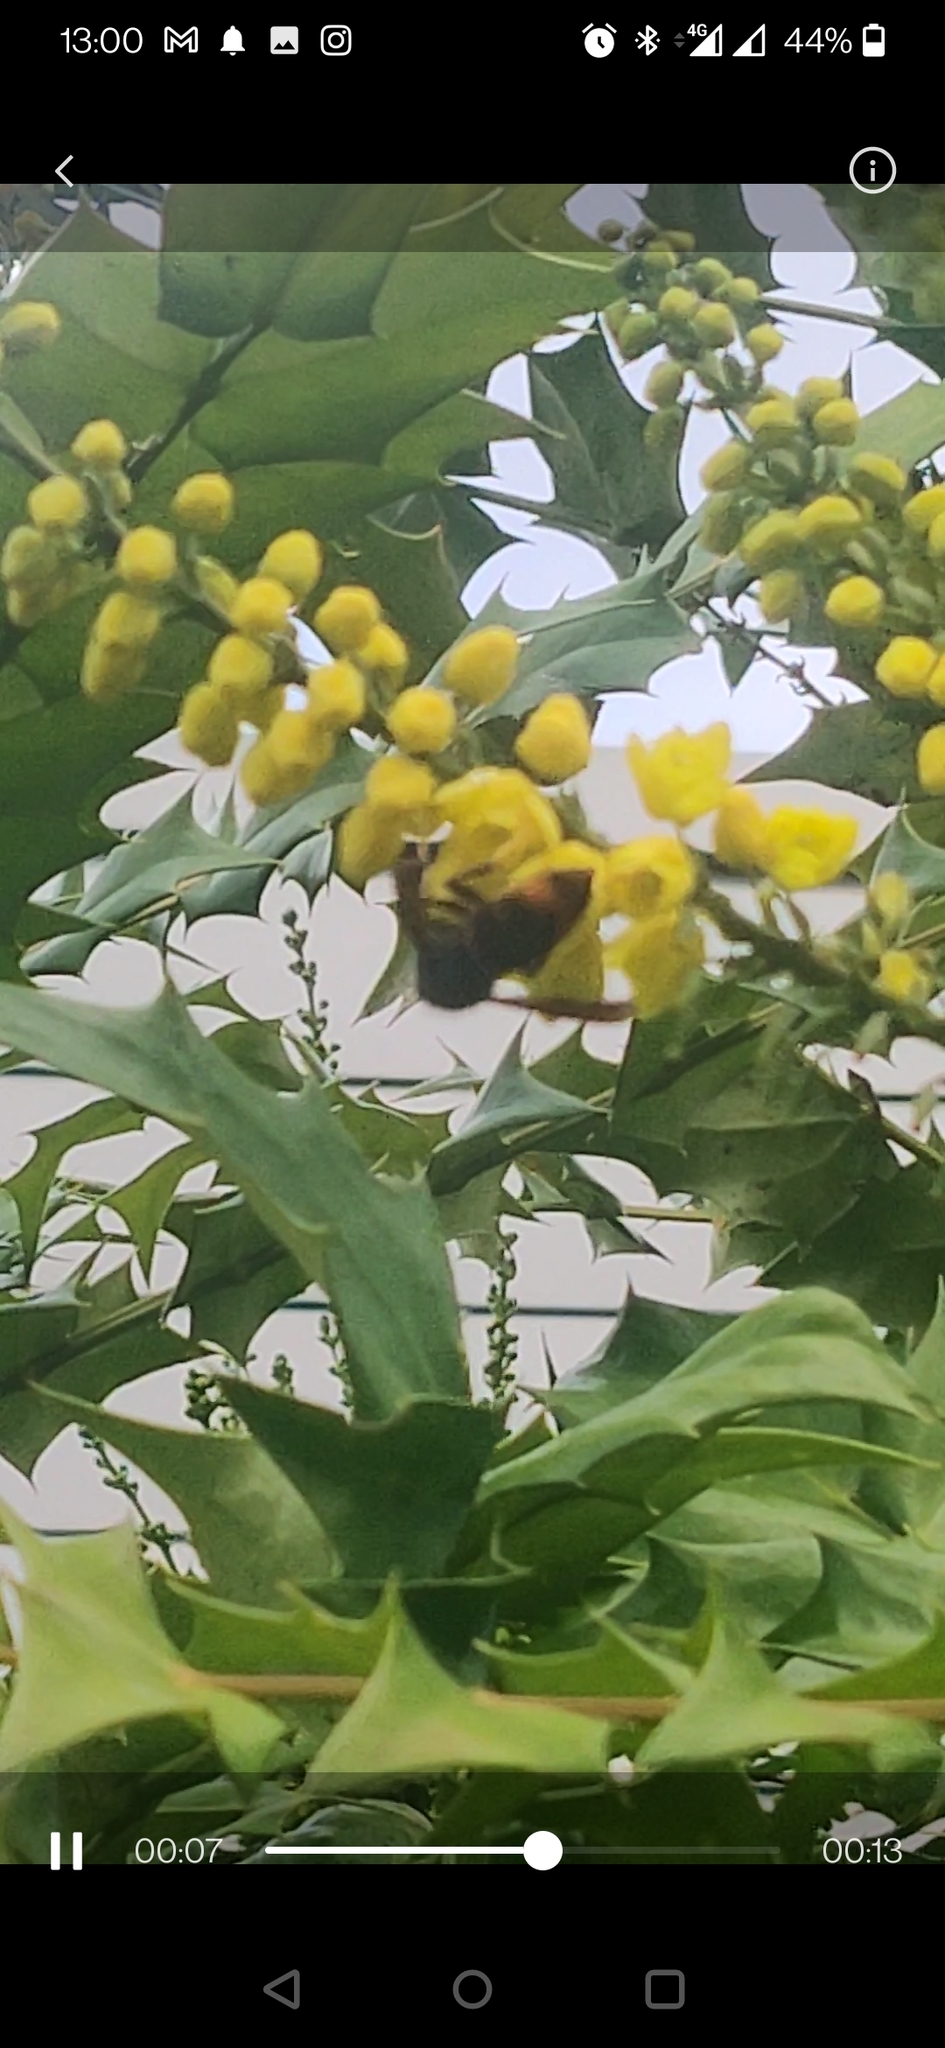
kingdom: Animalia
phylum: Arthropoda
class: Insecta
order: Hymenoptera
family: Vespidae
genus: Vespa
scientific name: Vespa velutina
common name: Asian hornet
